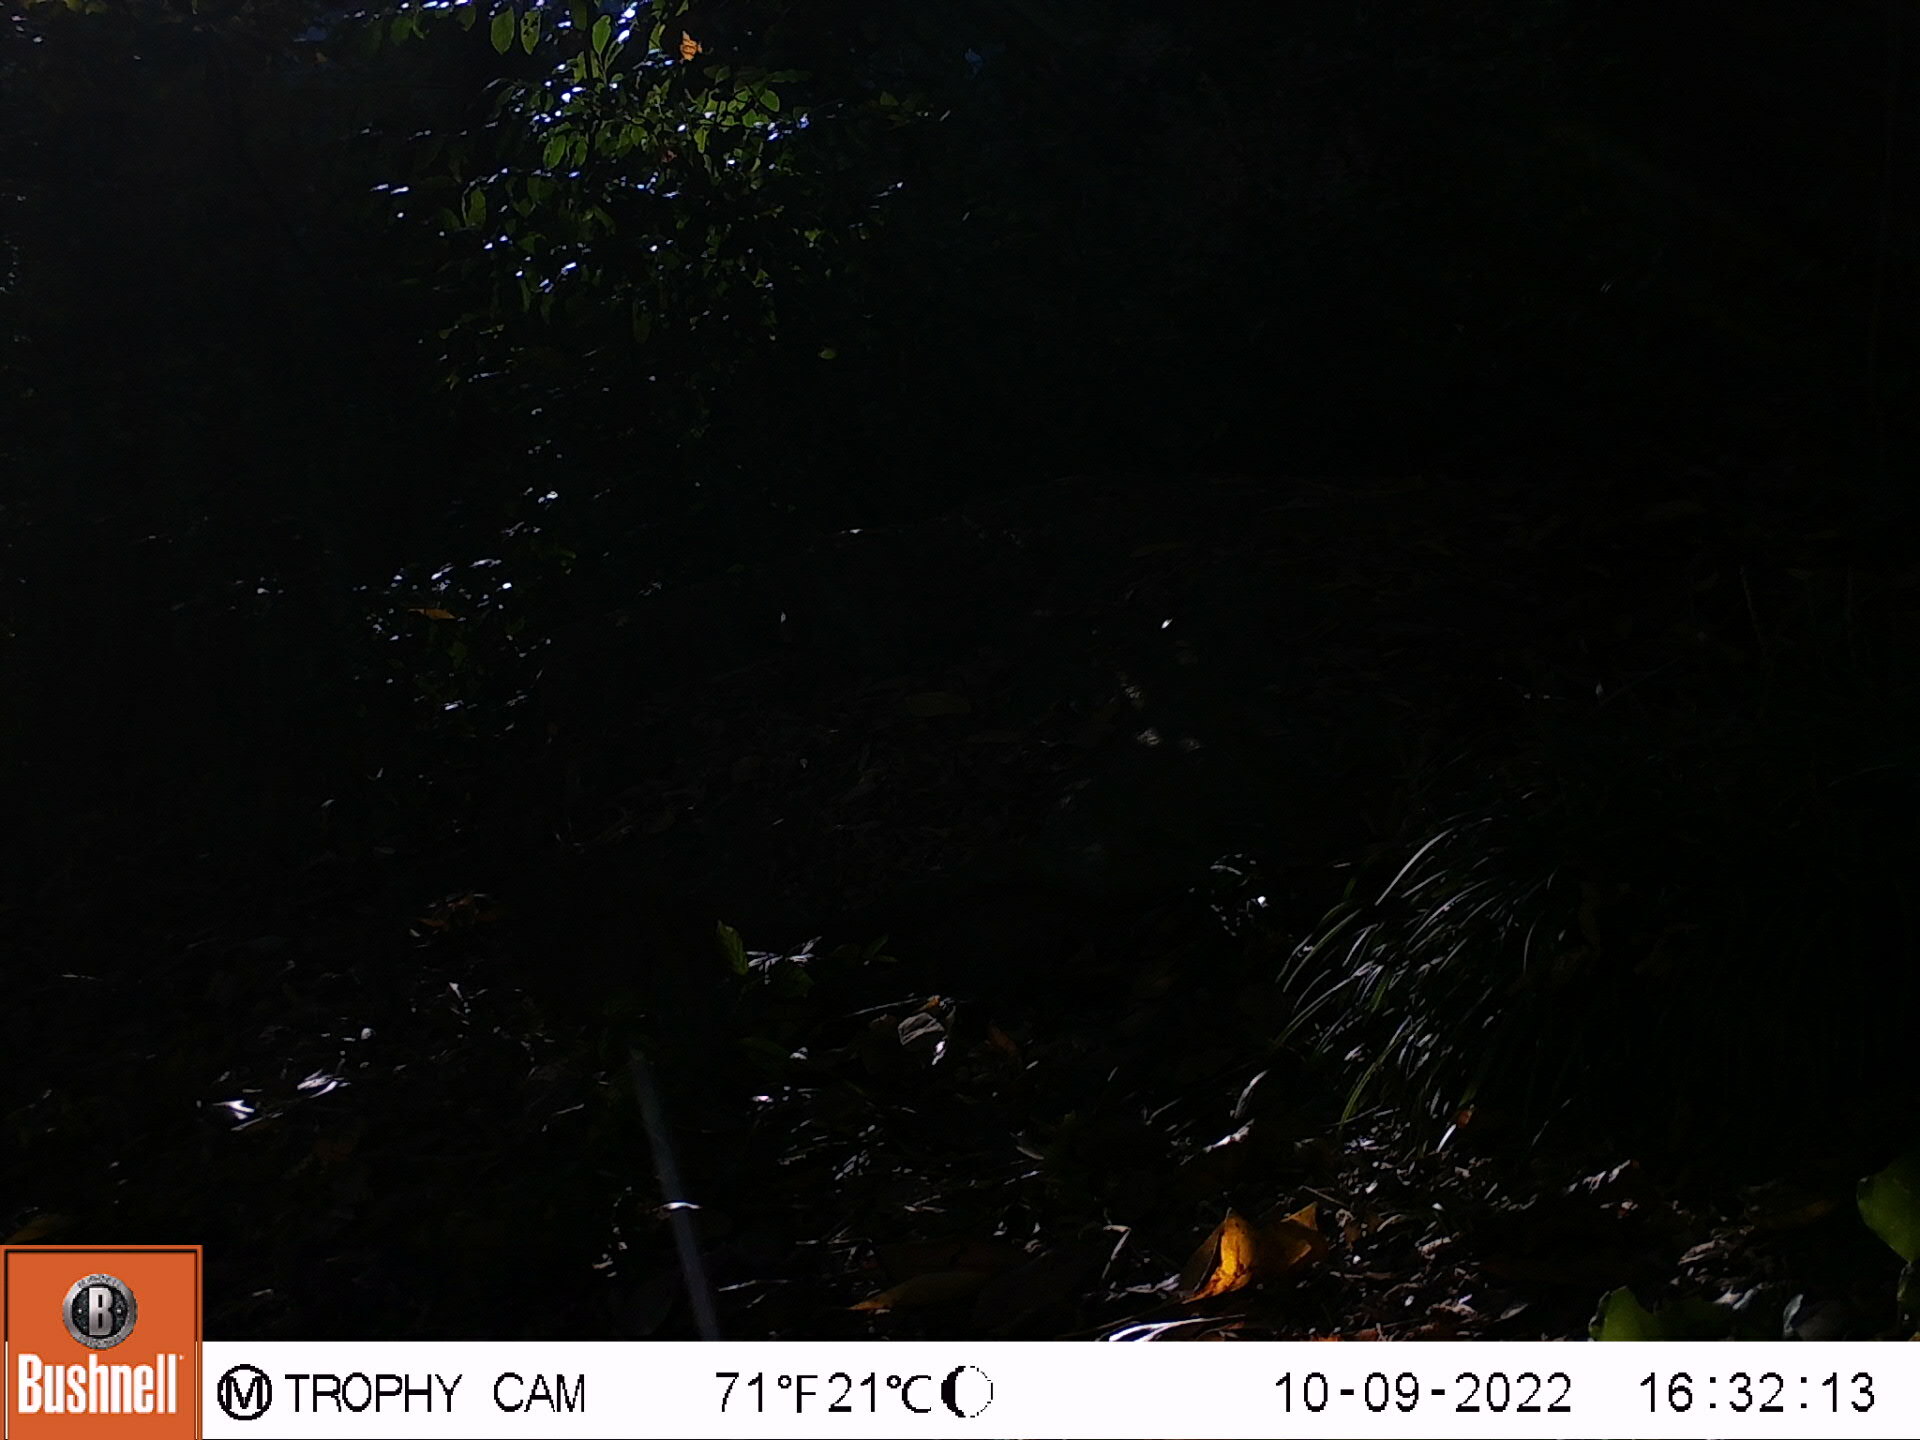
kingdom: Animalia
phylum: Chordata
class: Mammalia
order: Rodentia
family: Sciuridae
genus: Sciurus
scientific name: Sciurus carolinensis
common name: Eastern gray squirrel
